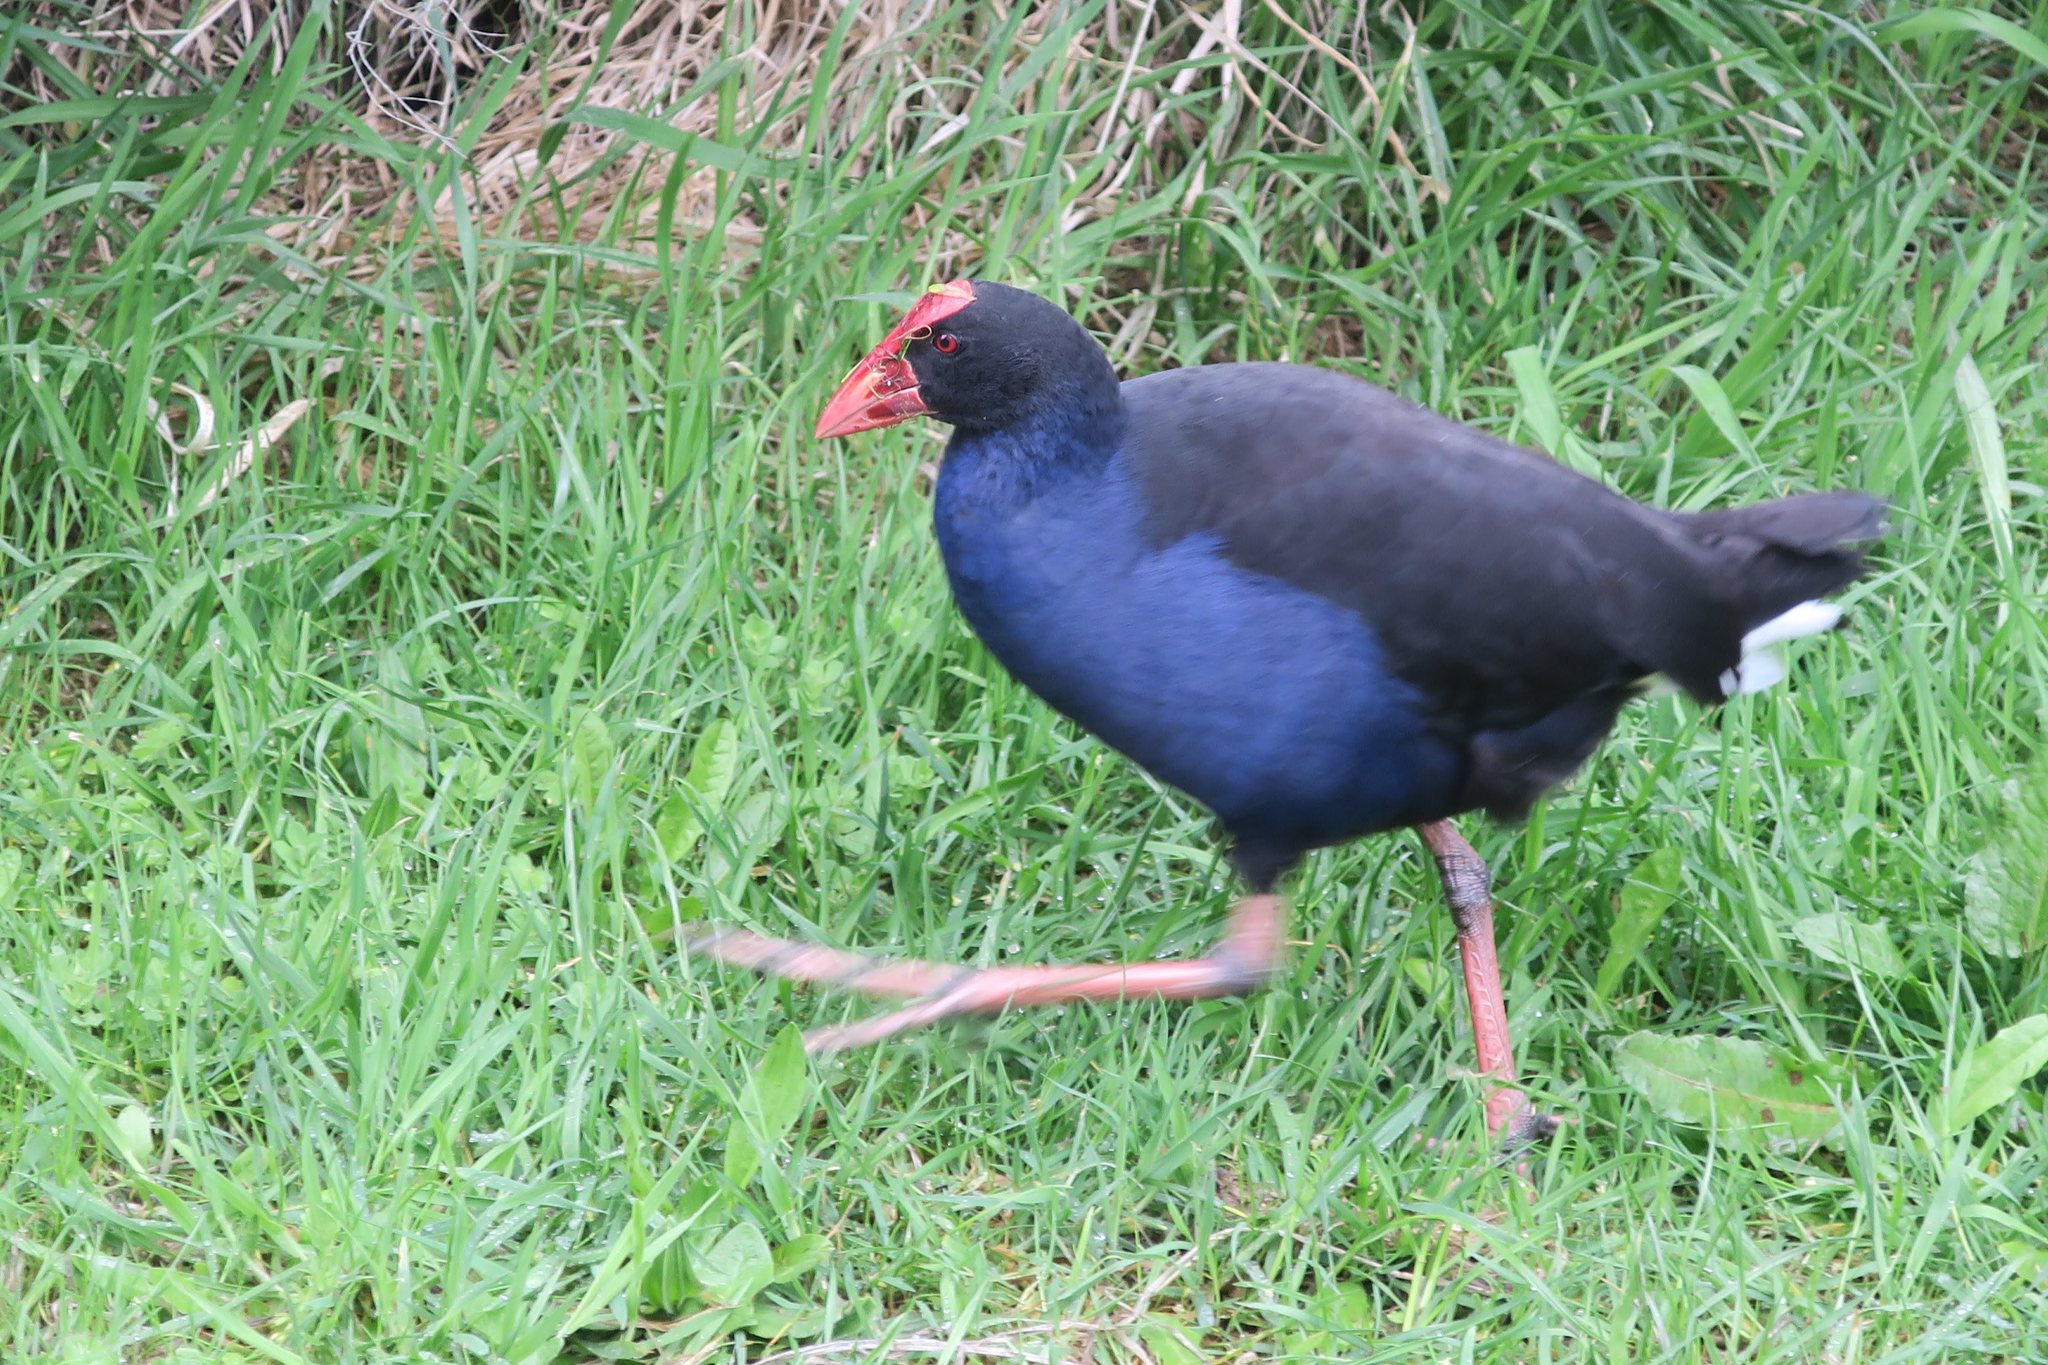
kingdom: Animalia
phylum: Chordata
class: Aves
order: Gruiformes
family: Rallidae
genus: Porphyrio
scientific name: Porphyrio melanotus
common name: Australasian swamphen
